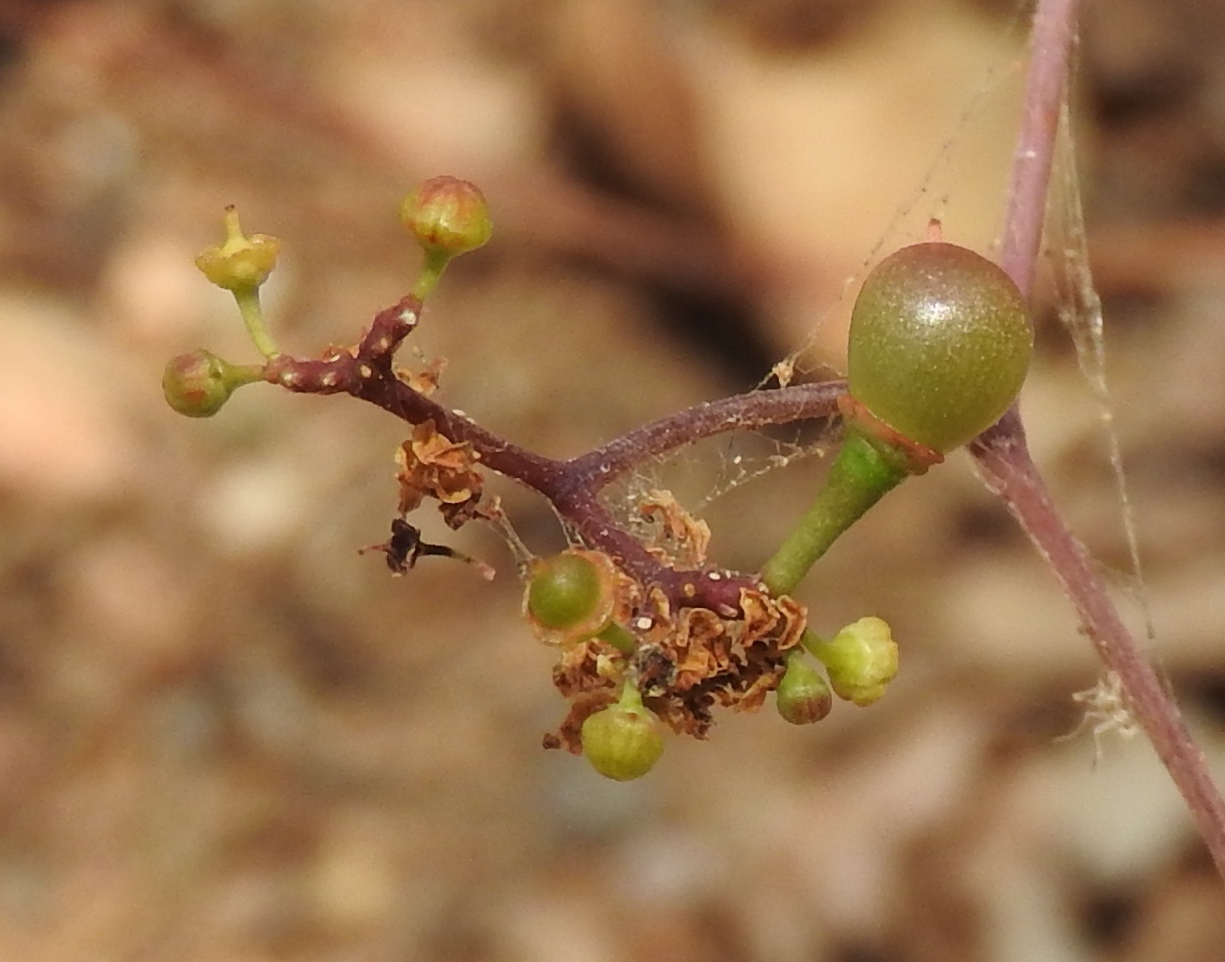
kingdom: Plantae
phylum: Tracheophyta
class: Magnoliopsida
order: Vitales
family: Vitaceae
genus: Parthenocissus
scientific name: Parthenocissus quinquefolia
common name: Virginia-creeper
